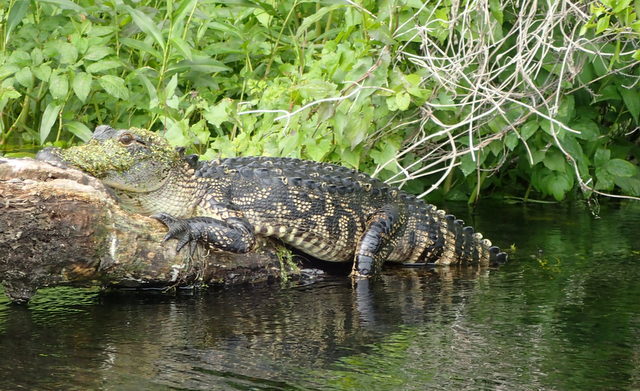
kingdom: Animalia
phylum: Chordata
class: Crocodylia
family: Alligatoridae
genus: Alligator
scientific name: Alligator mississippiensis
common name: American alligator
